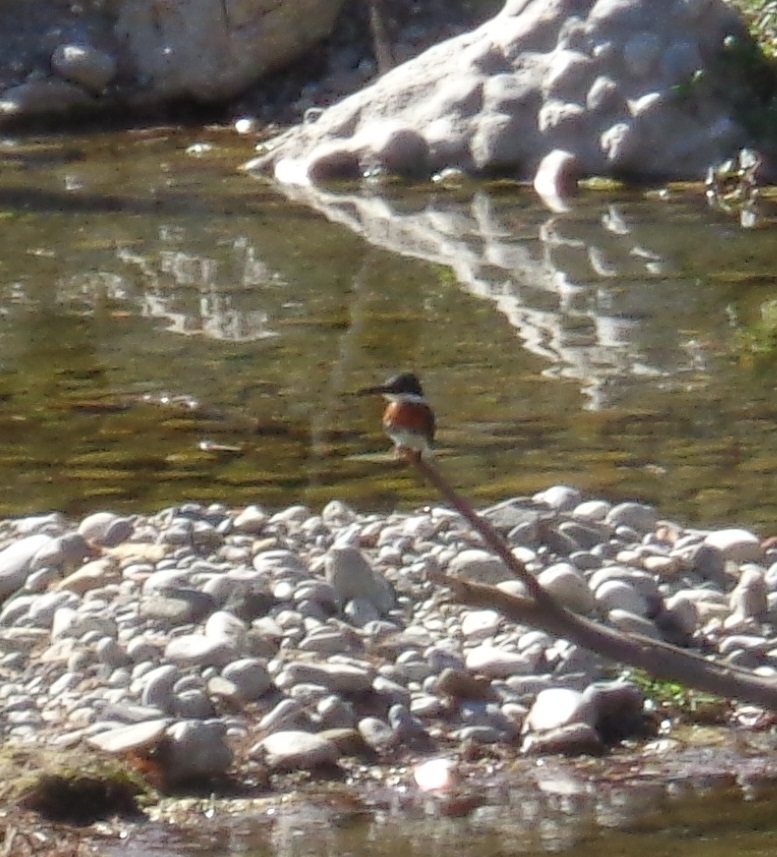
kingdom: Animalia
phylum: Chordata
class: Aves
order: Coraciiformes
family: Alcedinidae
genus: Chloroceryle
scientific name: Chloroceryle americana
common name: Green kingfisher
